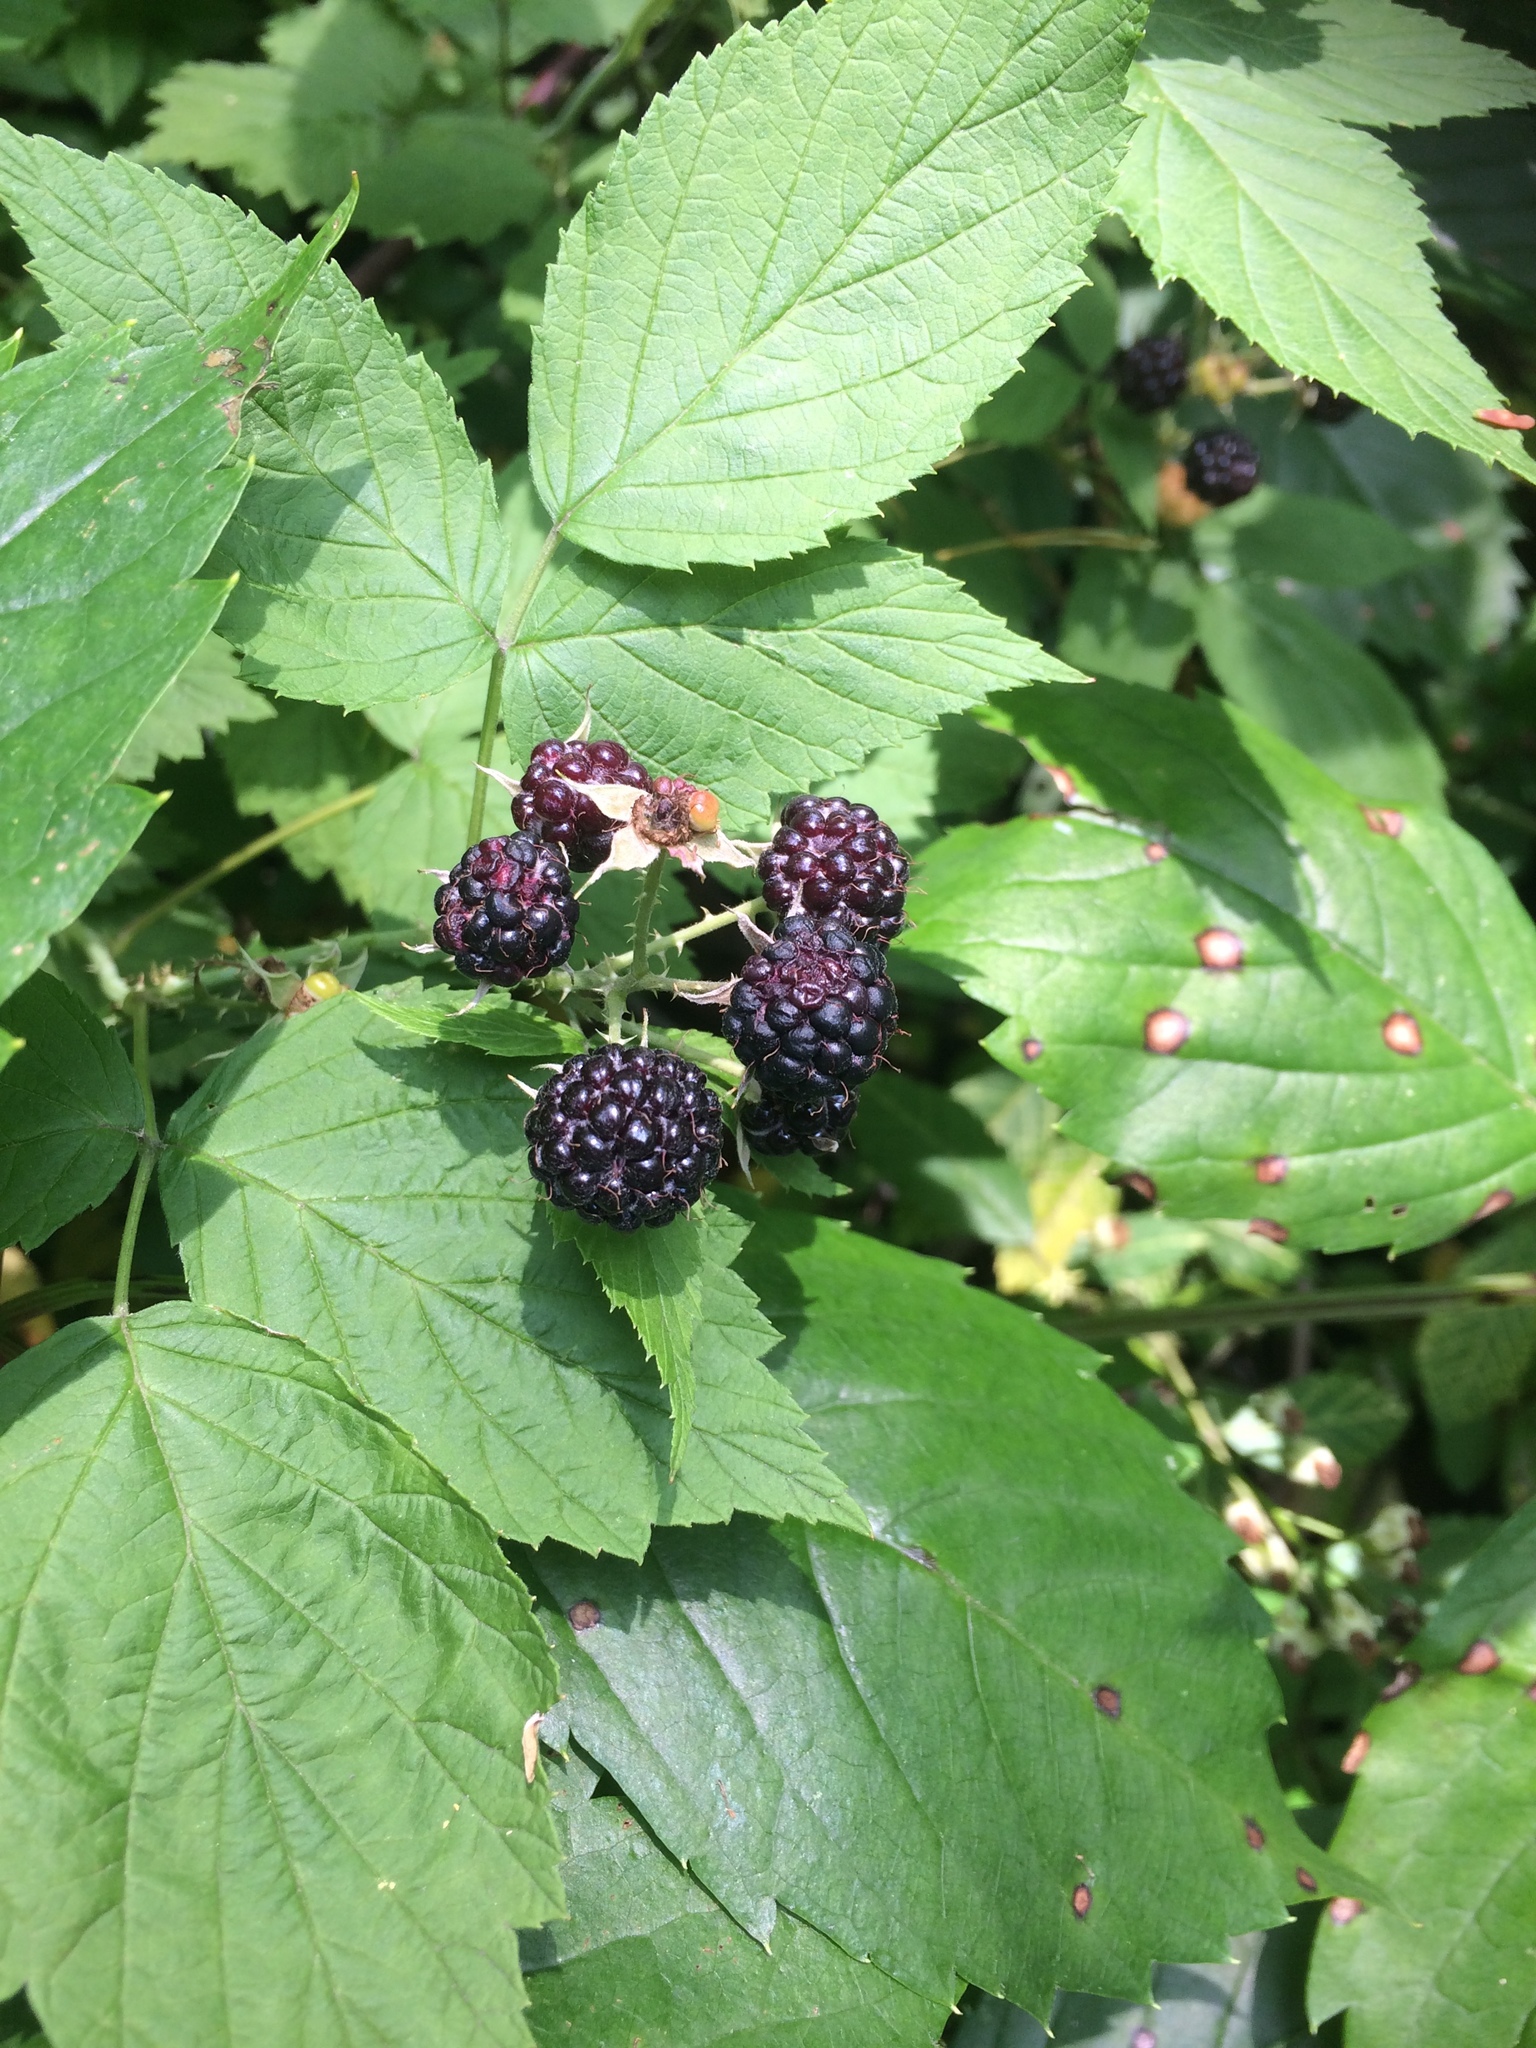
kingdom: Plantae
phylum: Tracheophyta
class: Magnoliopsida
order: Rosales
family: Rosaceae
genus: Rubus
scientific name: Rubus occidentalis
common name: Black raspberry
